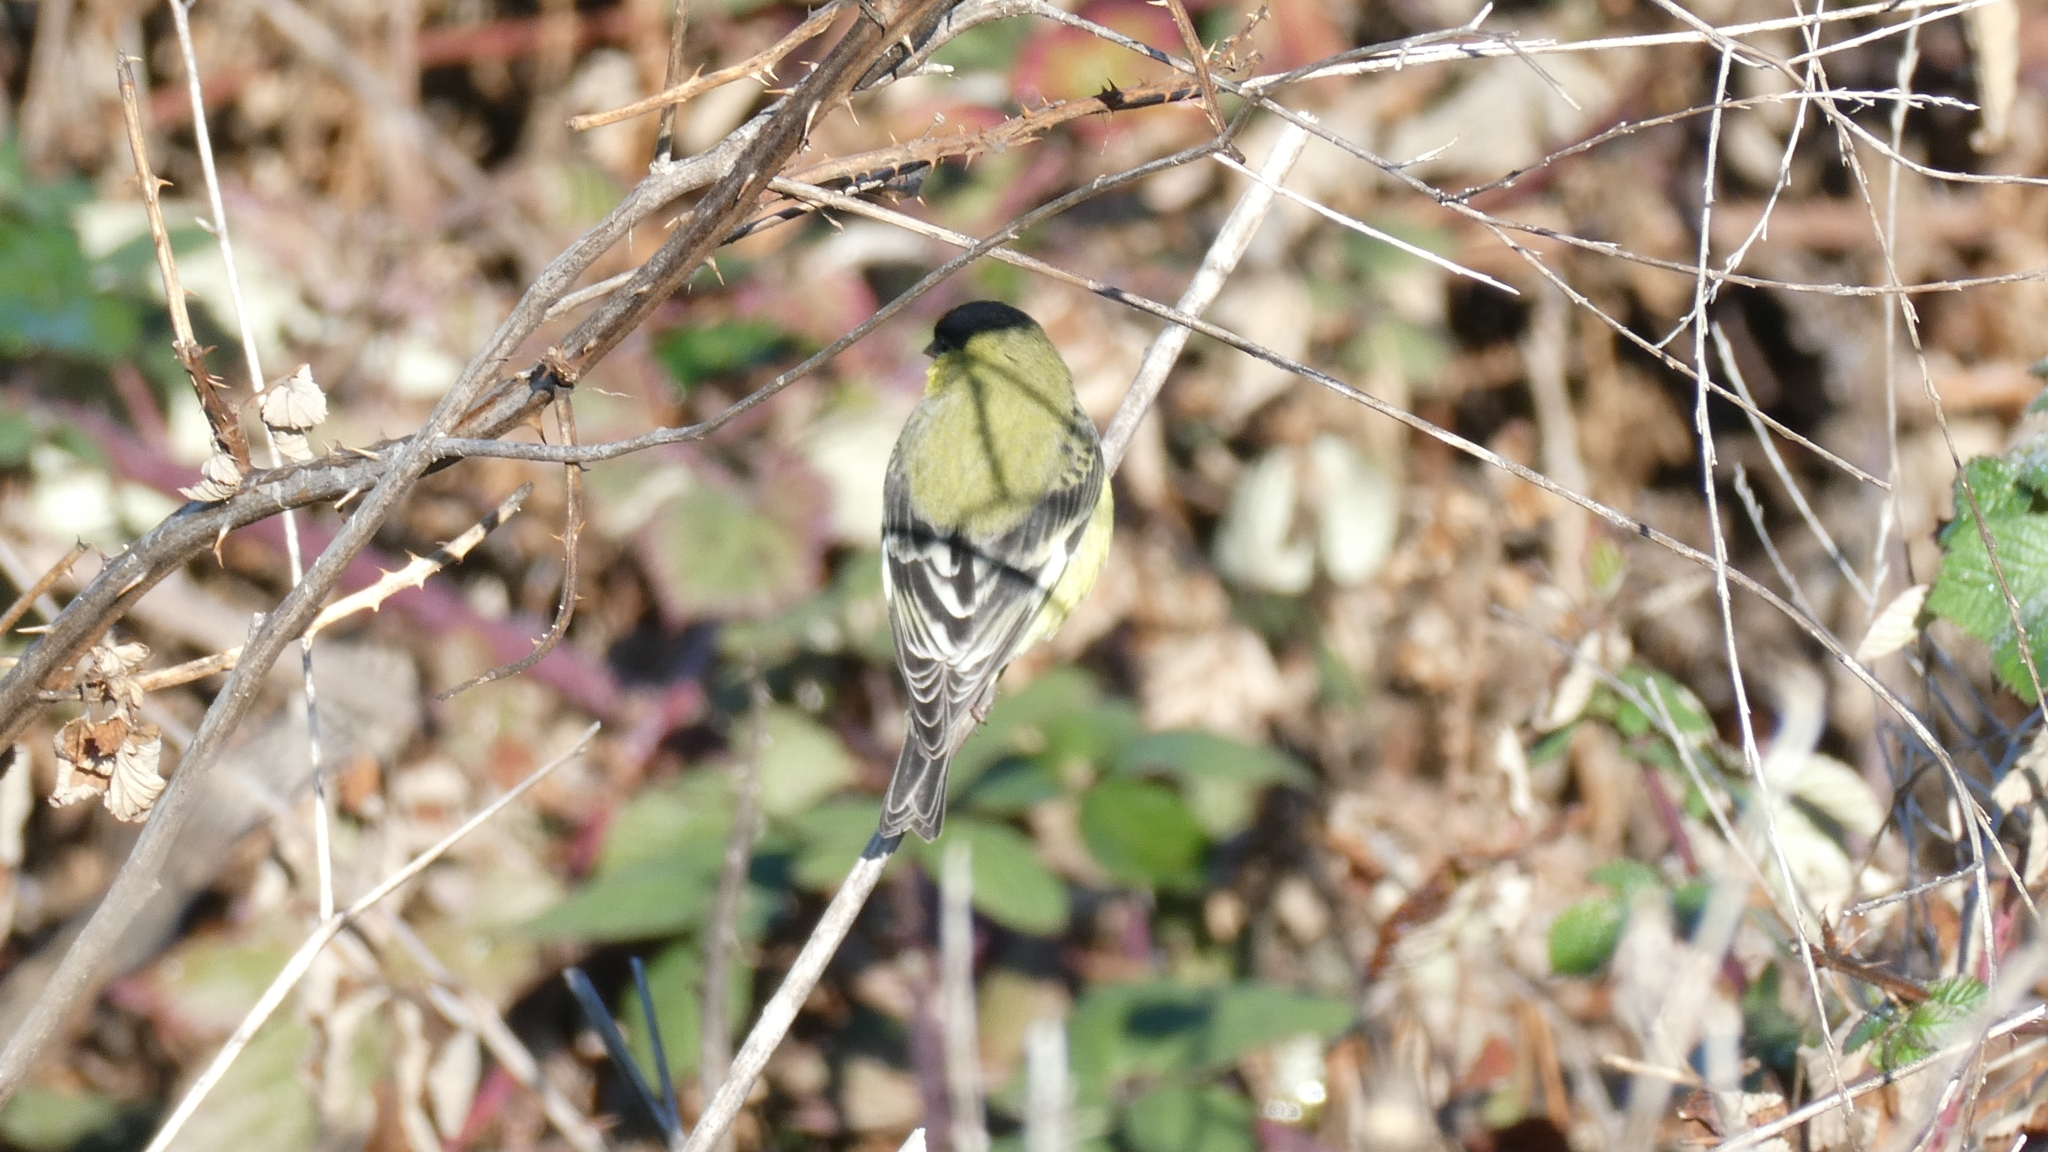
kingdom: Animalia
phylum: Chordata
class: Aves
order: Passeriformes
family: Fringillidae
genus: Spinus
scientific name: Spinus psaltria
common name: Lesser goldfinch
